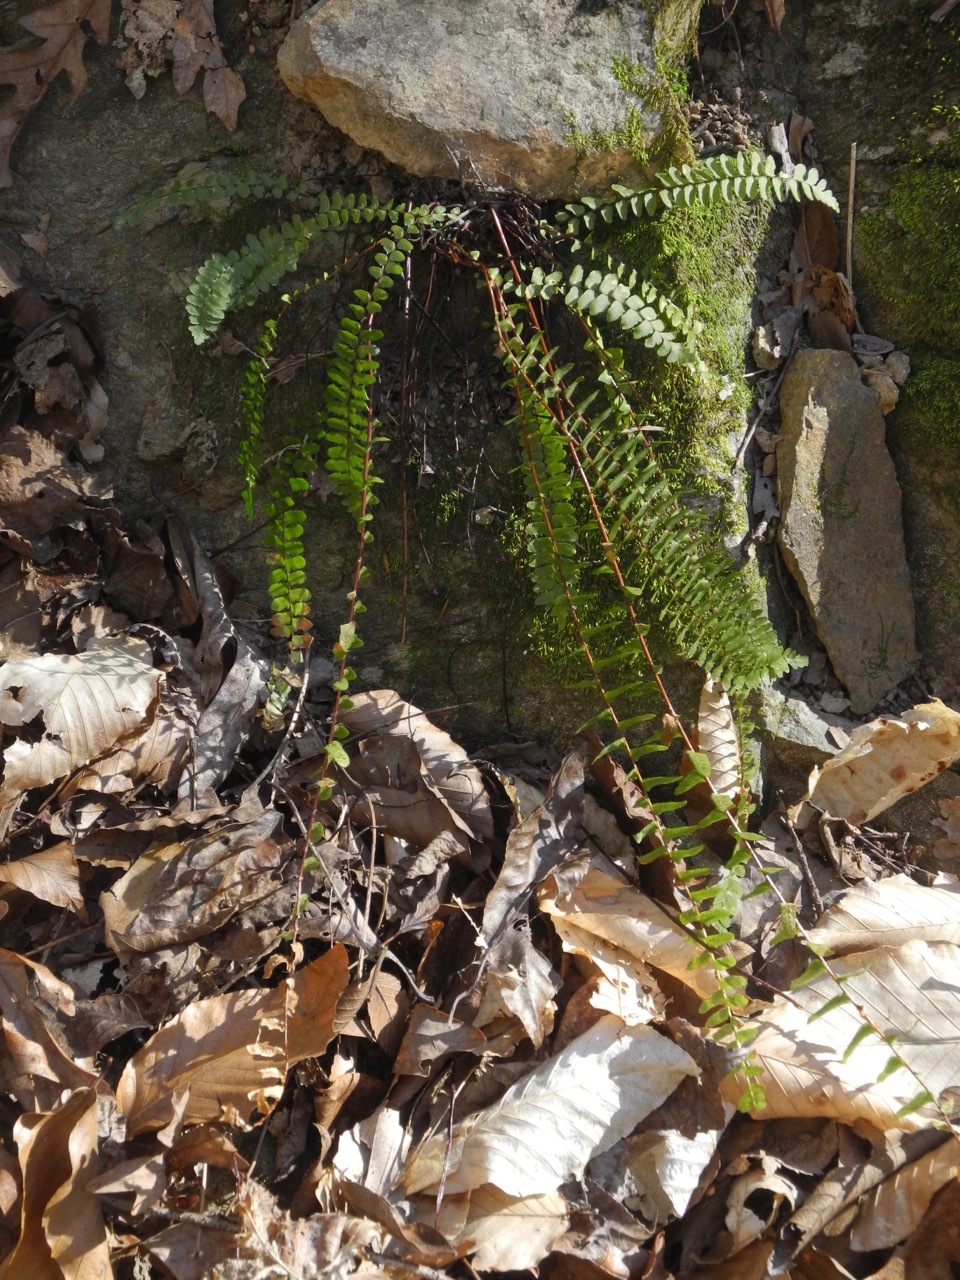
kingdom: Plantae
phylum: Tracheophyta
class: Polypodiopsida
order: Polypodiales
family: Aspleniaceae
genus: Asplenium
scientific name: Asplenium platyneuron
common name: Ebony spleenwort
